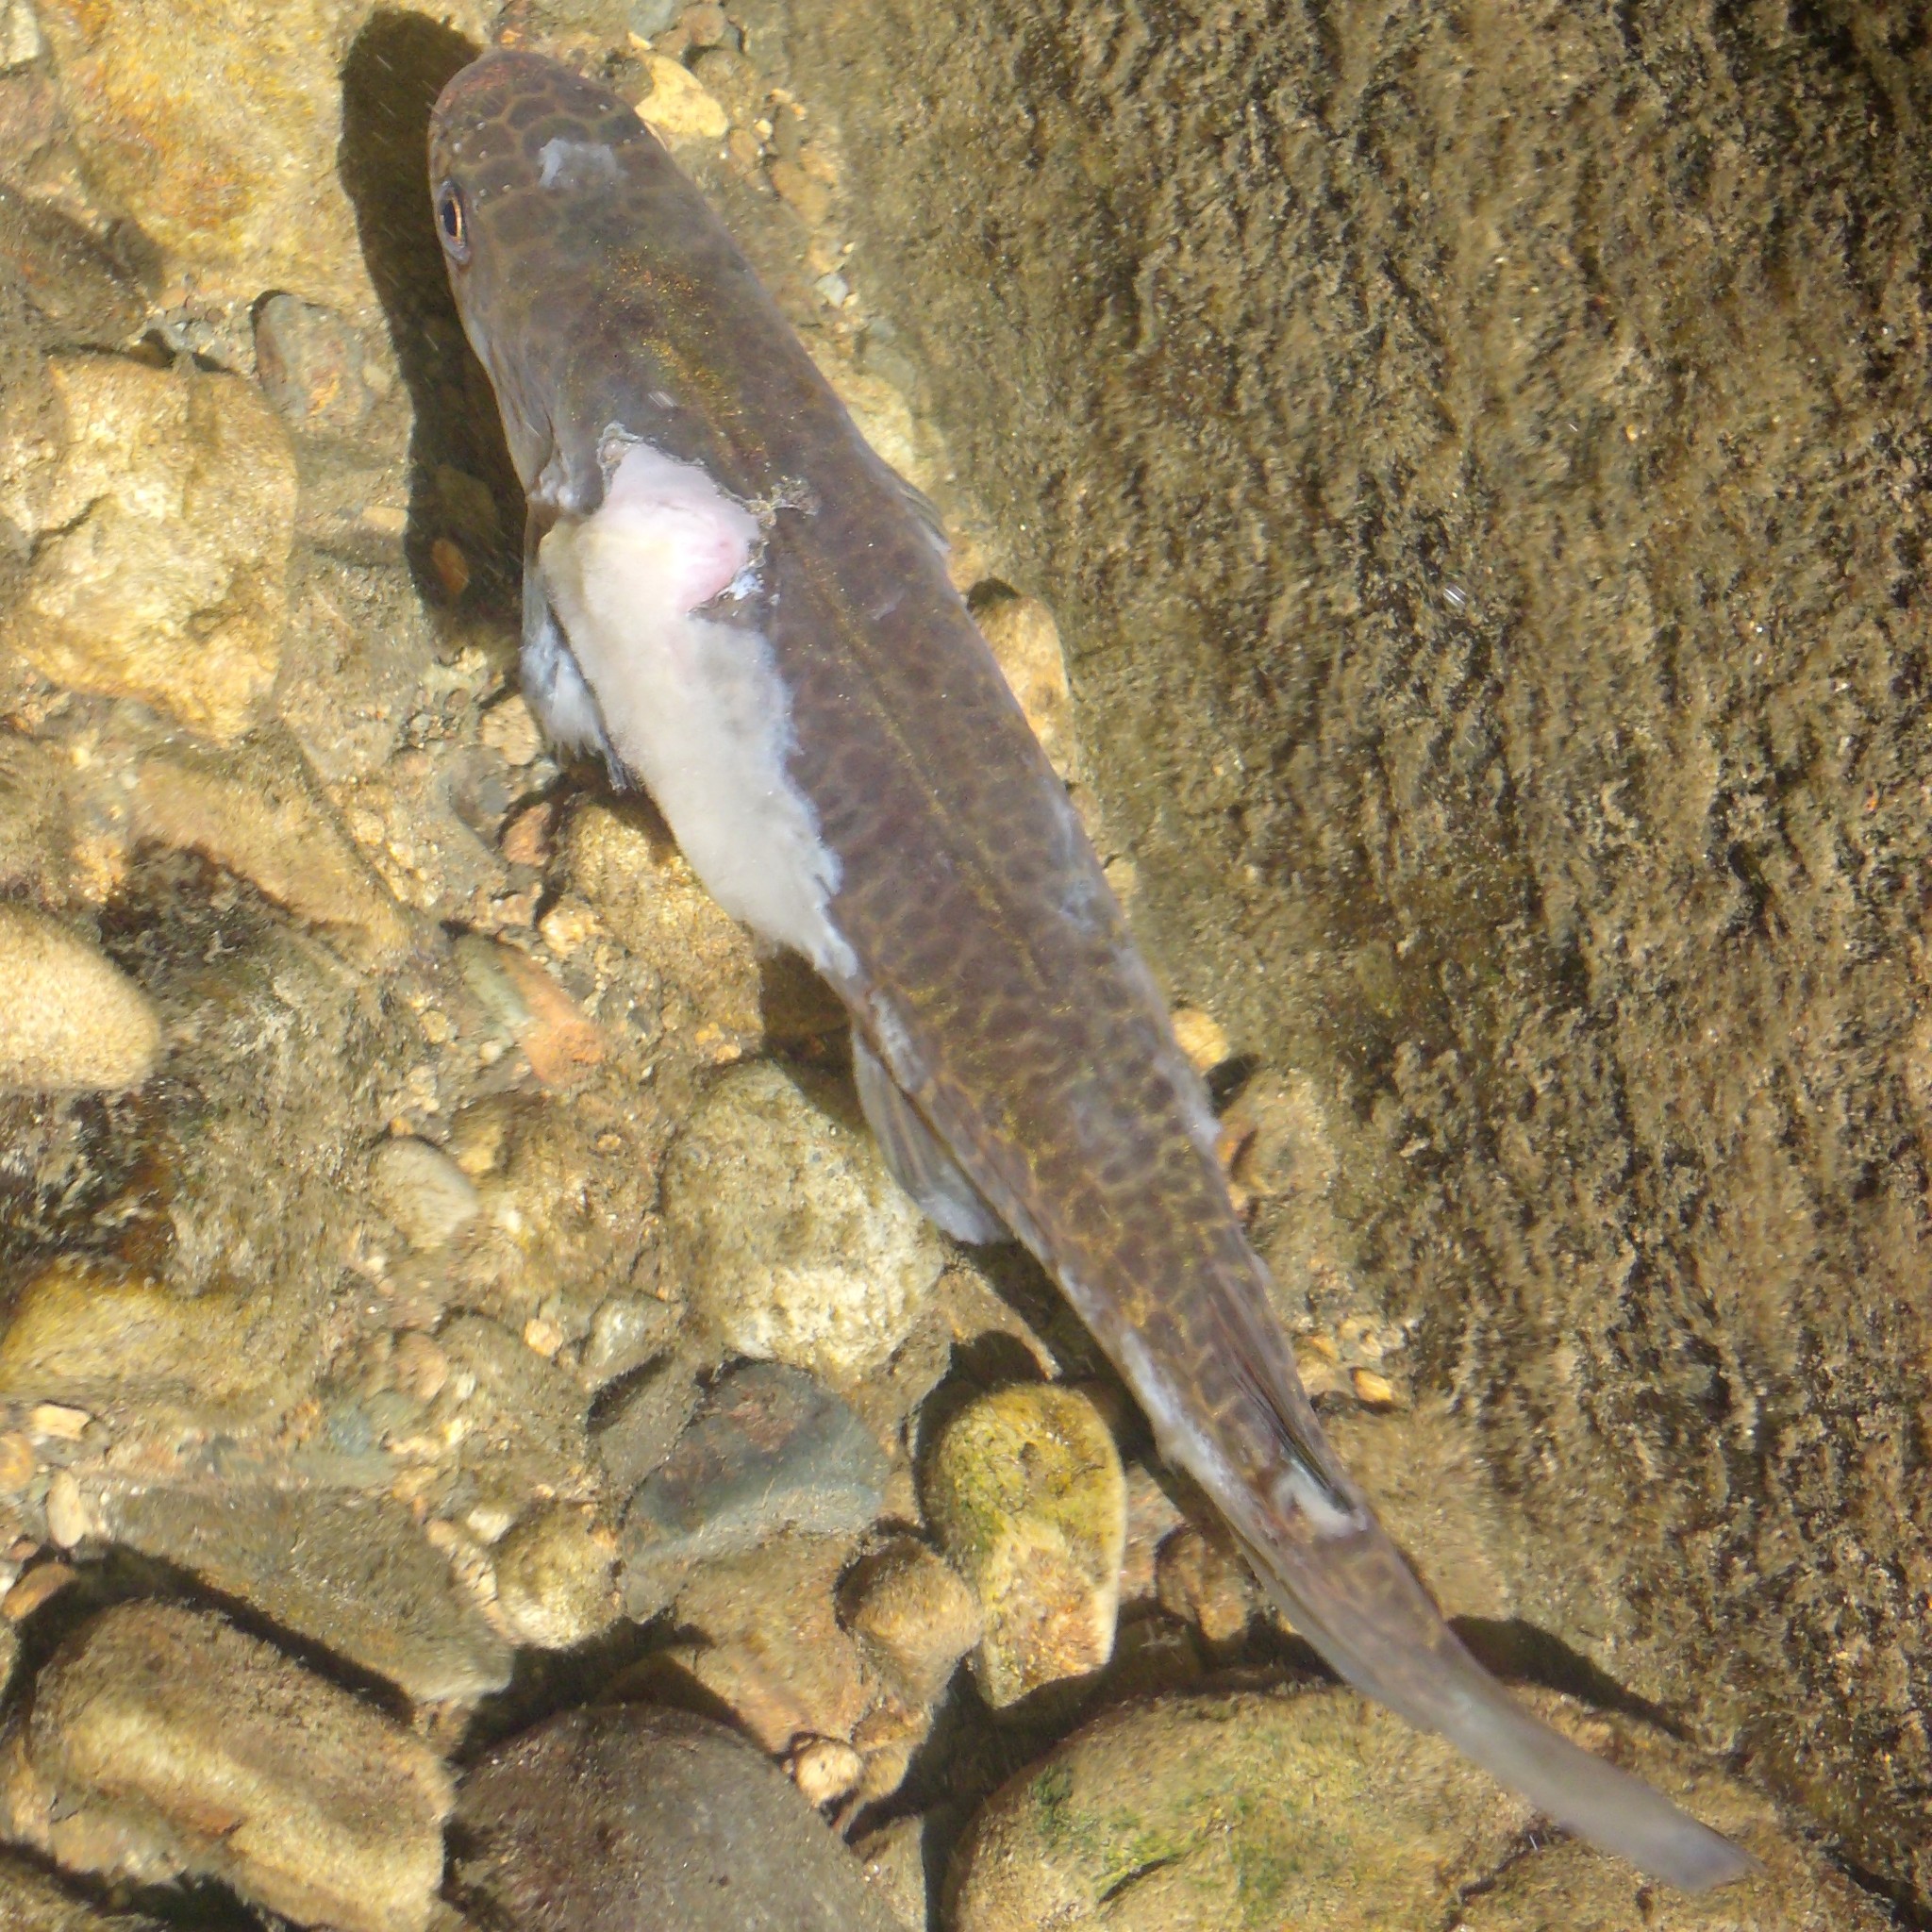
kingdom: Animalia
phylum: Chordata
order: Osmeriformes
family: Galaxiidae
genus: Galaxias
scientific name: Galaxias fasciatus
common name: Banded kokopu
